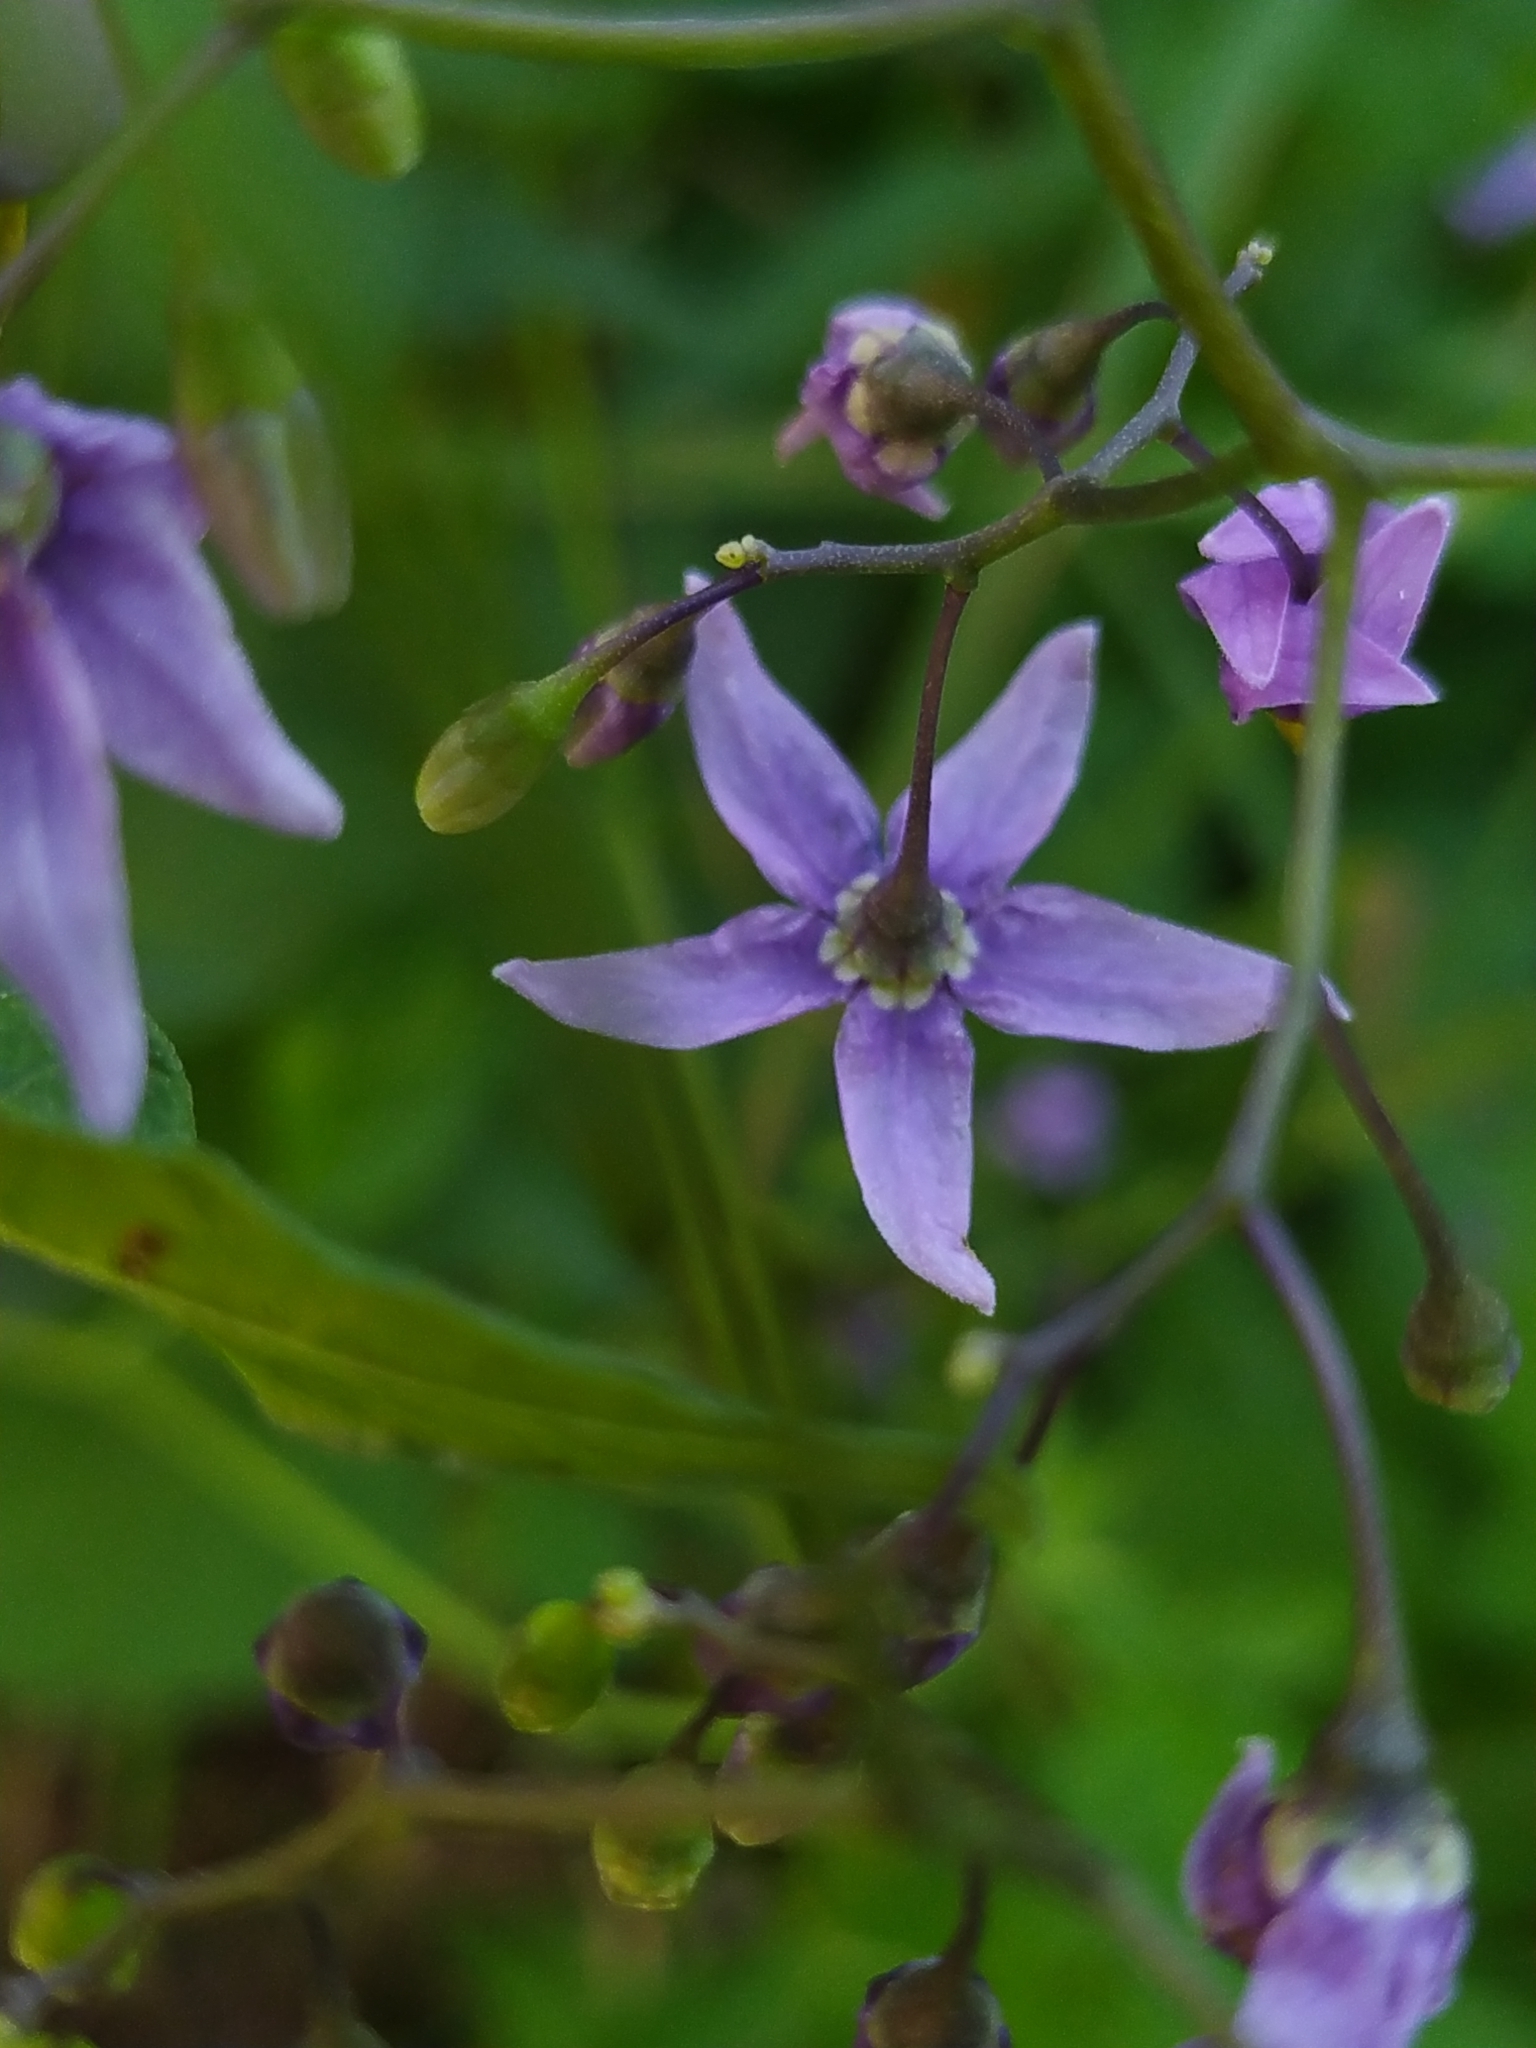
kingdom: Plantae
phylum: Tracheophyta
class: Magnoliopsida
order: Solanales
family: Solanaceae
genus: Solanum
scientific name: Solanum dulcamara
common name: Climbing nightshade
